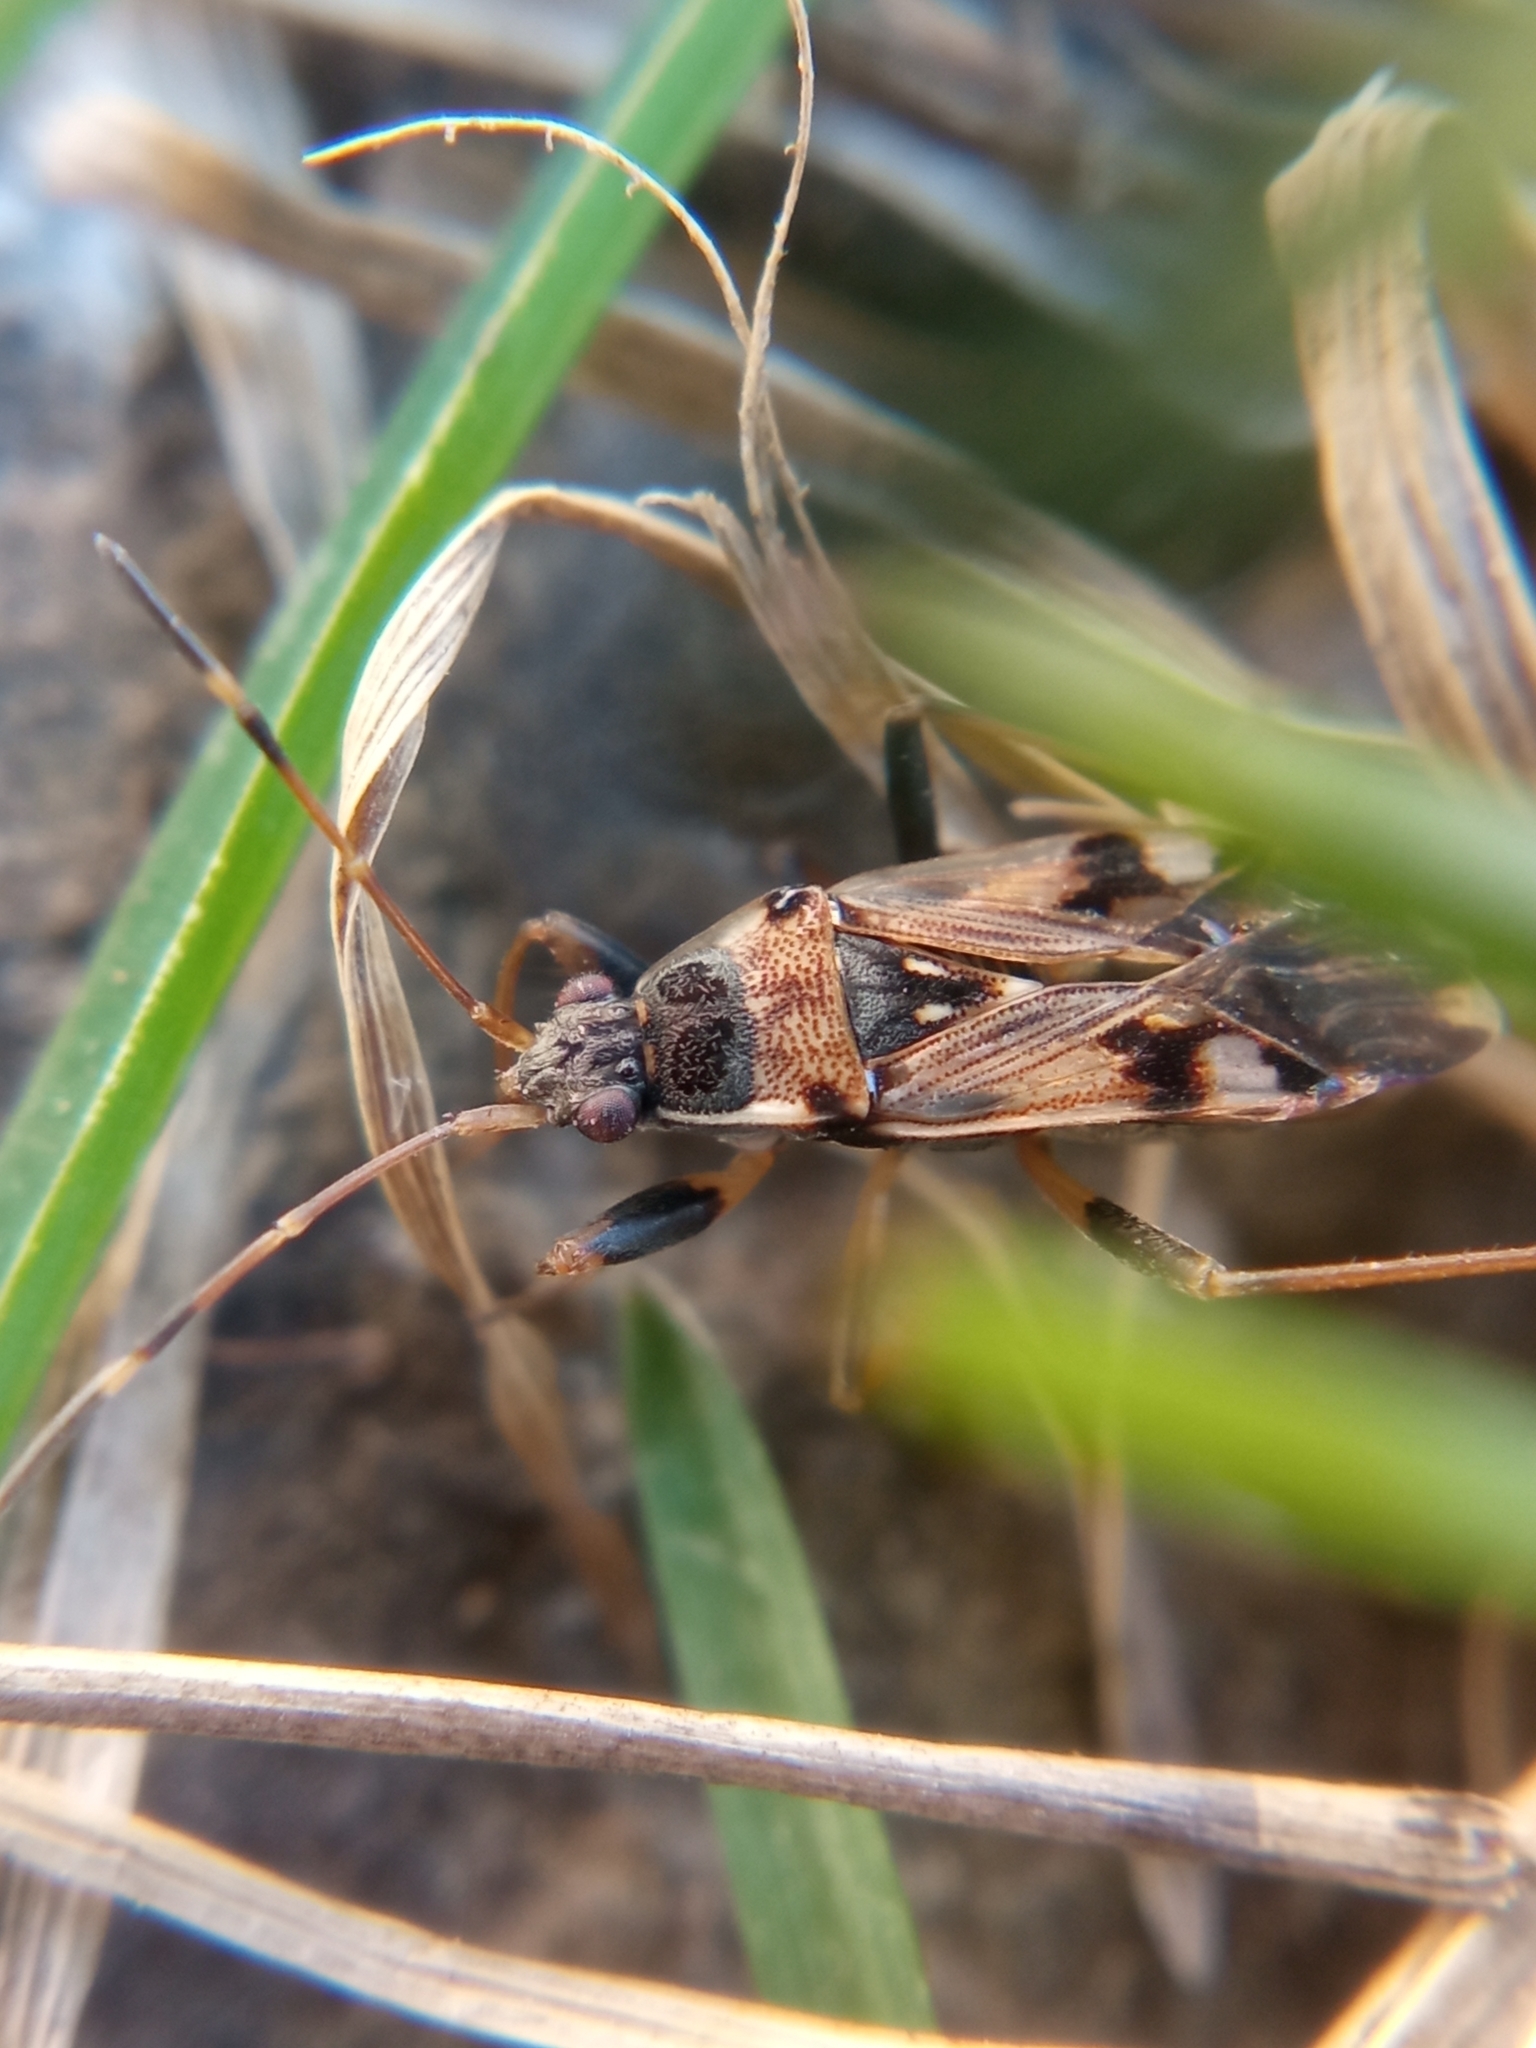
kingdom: Animalia
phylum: Arthropoda
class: Insecta
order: Hemiptera
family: Rhyparochromidae
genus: Beosus
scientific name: Beosus maritimus
